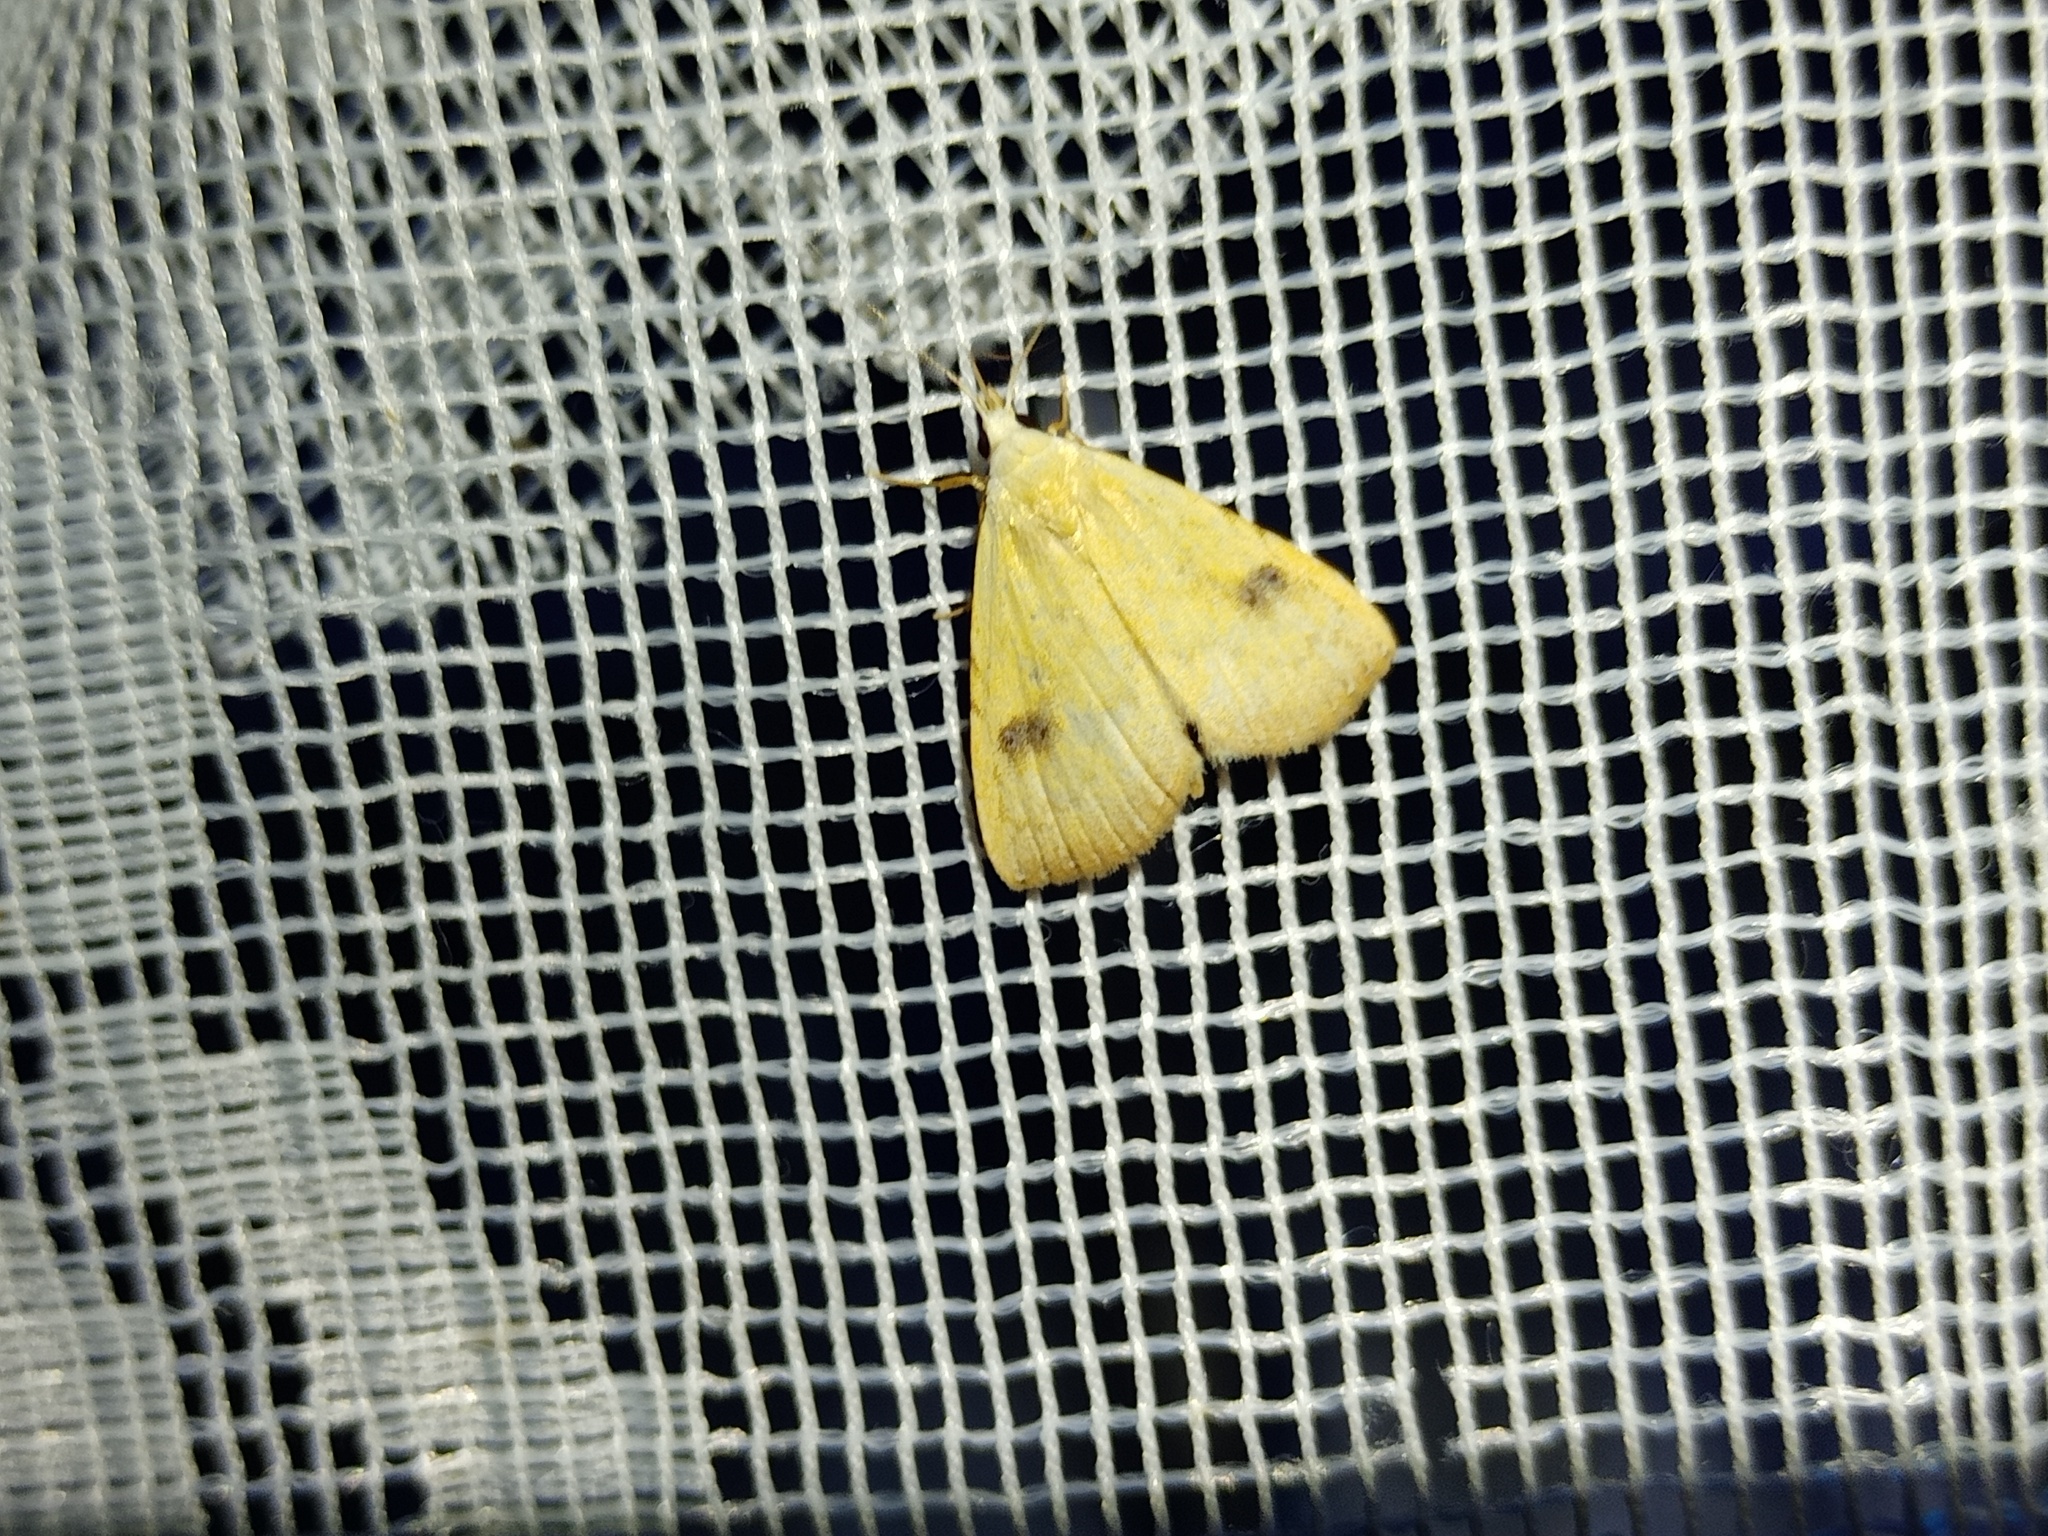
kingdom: Animalia
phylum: Arthropoda
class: Insecta
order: Lepidoptera
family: Erebidae
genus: Rivula
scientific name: Rivula sericealis
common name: Straw dot
